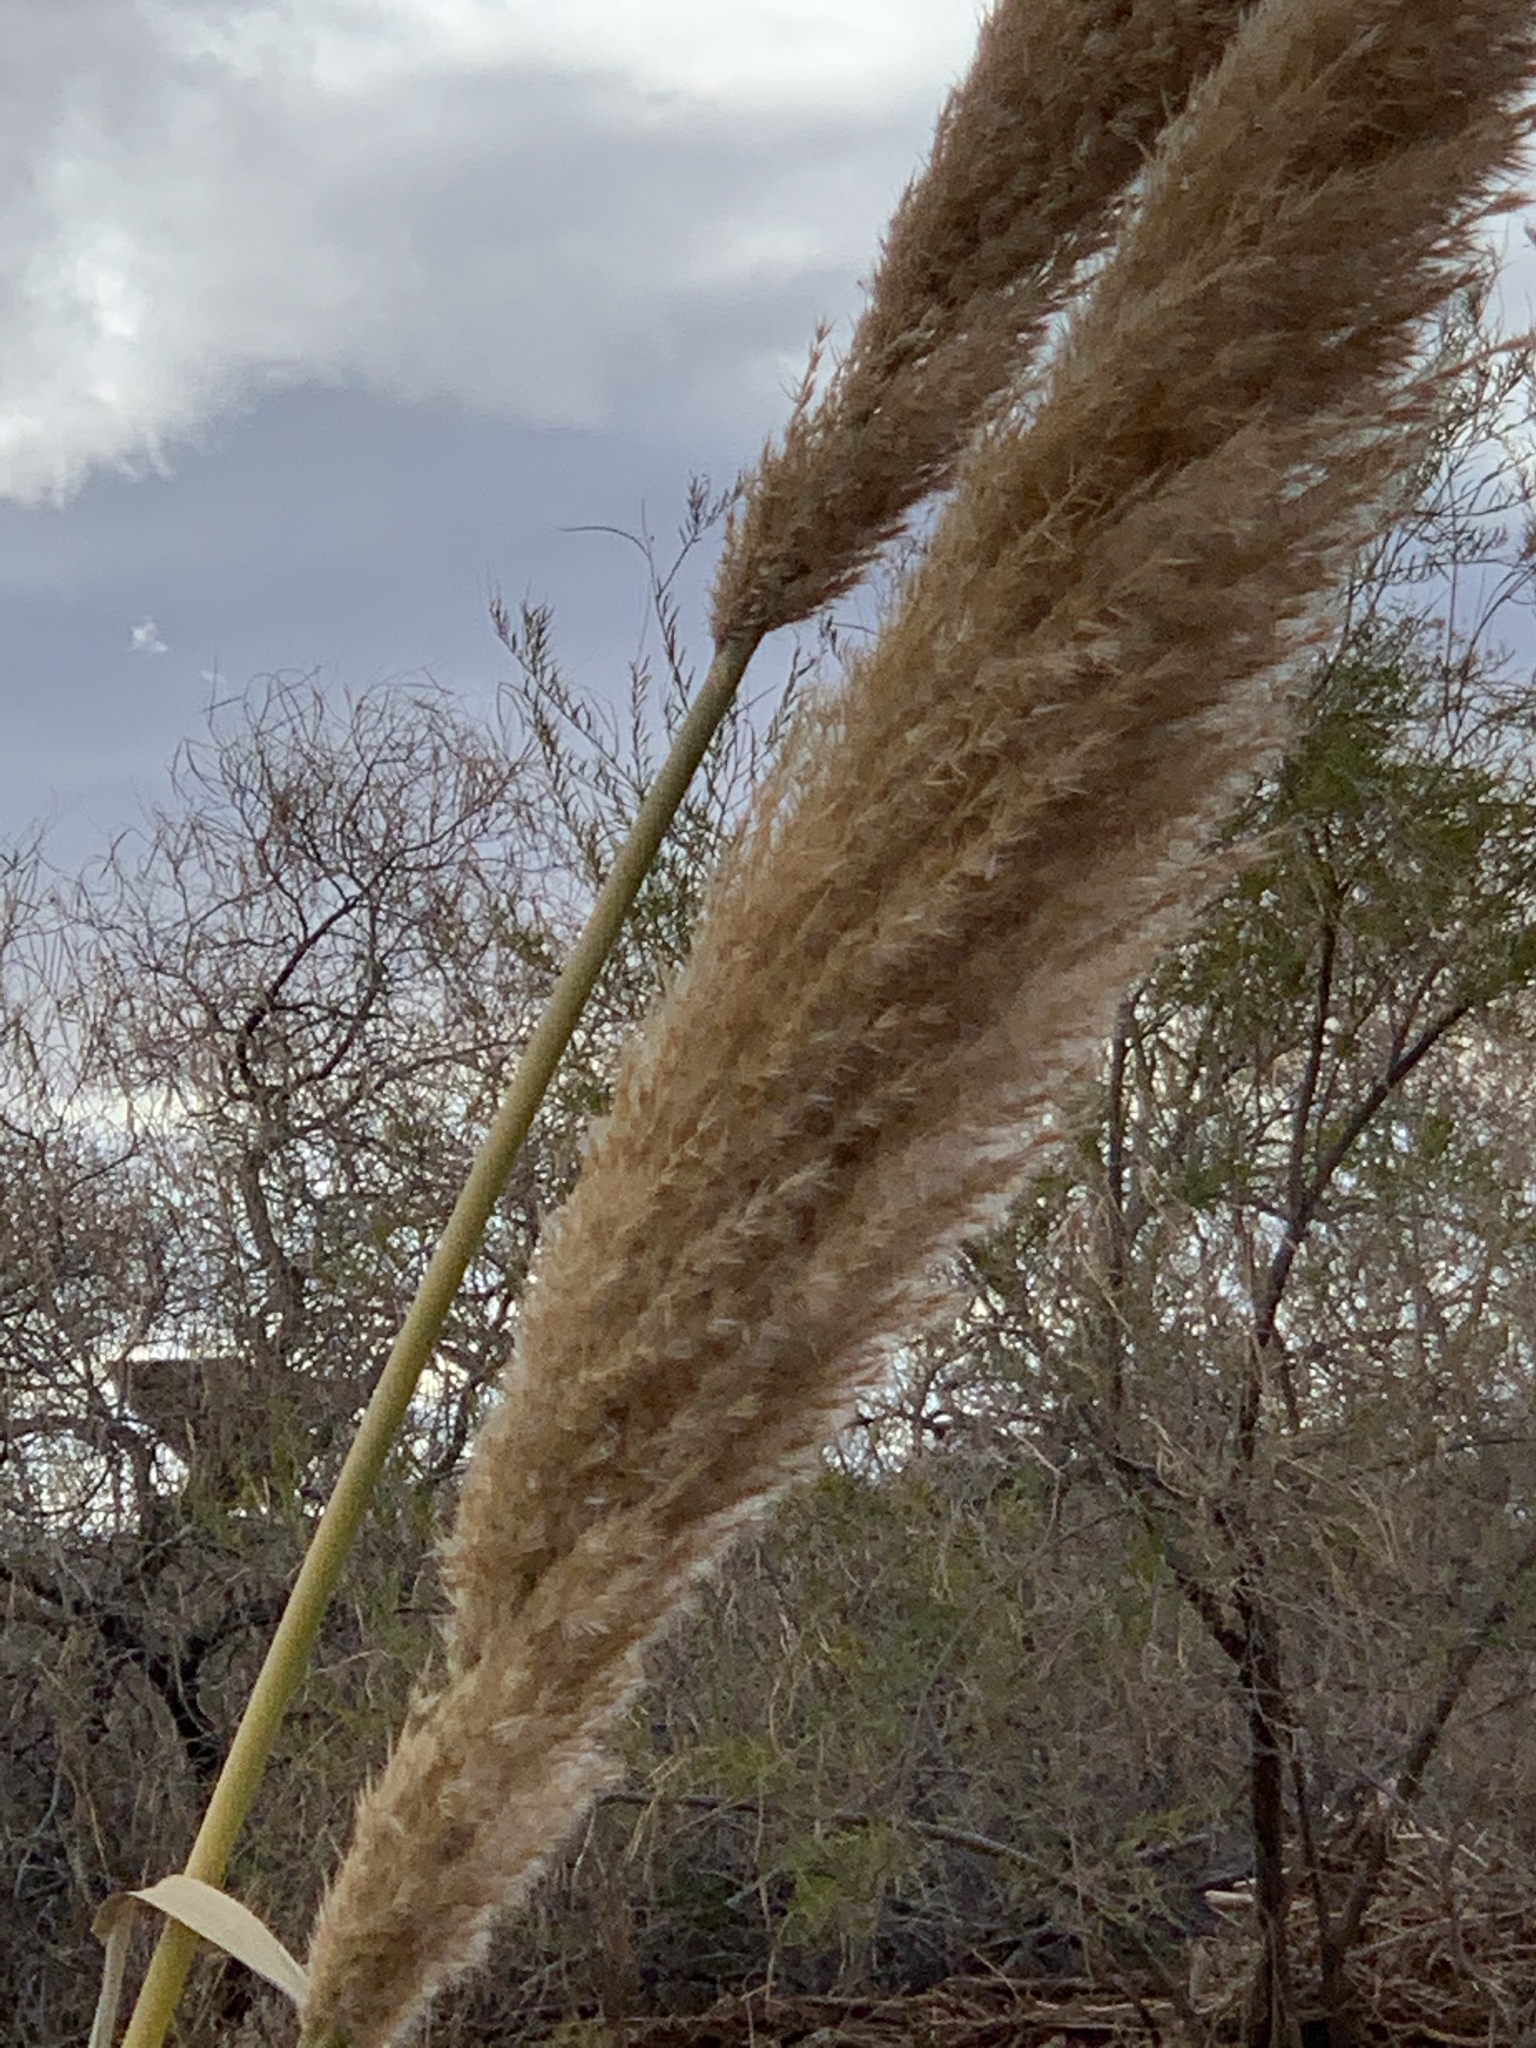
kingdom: Plantae
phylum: Tracheophyta
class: Liliopsida
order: Poales
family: Poaceae
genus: Arundo
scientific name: Arundo donax
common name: Giant reed
